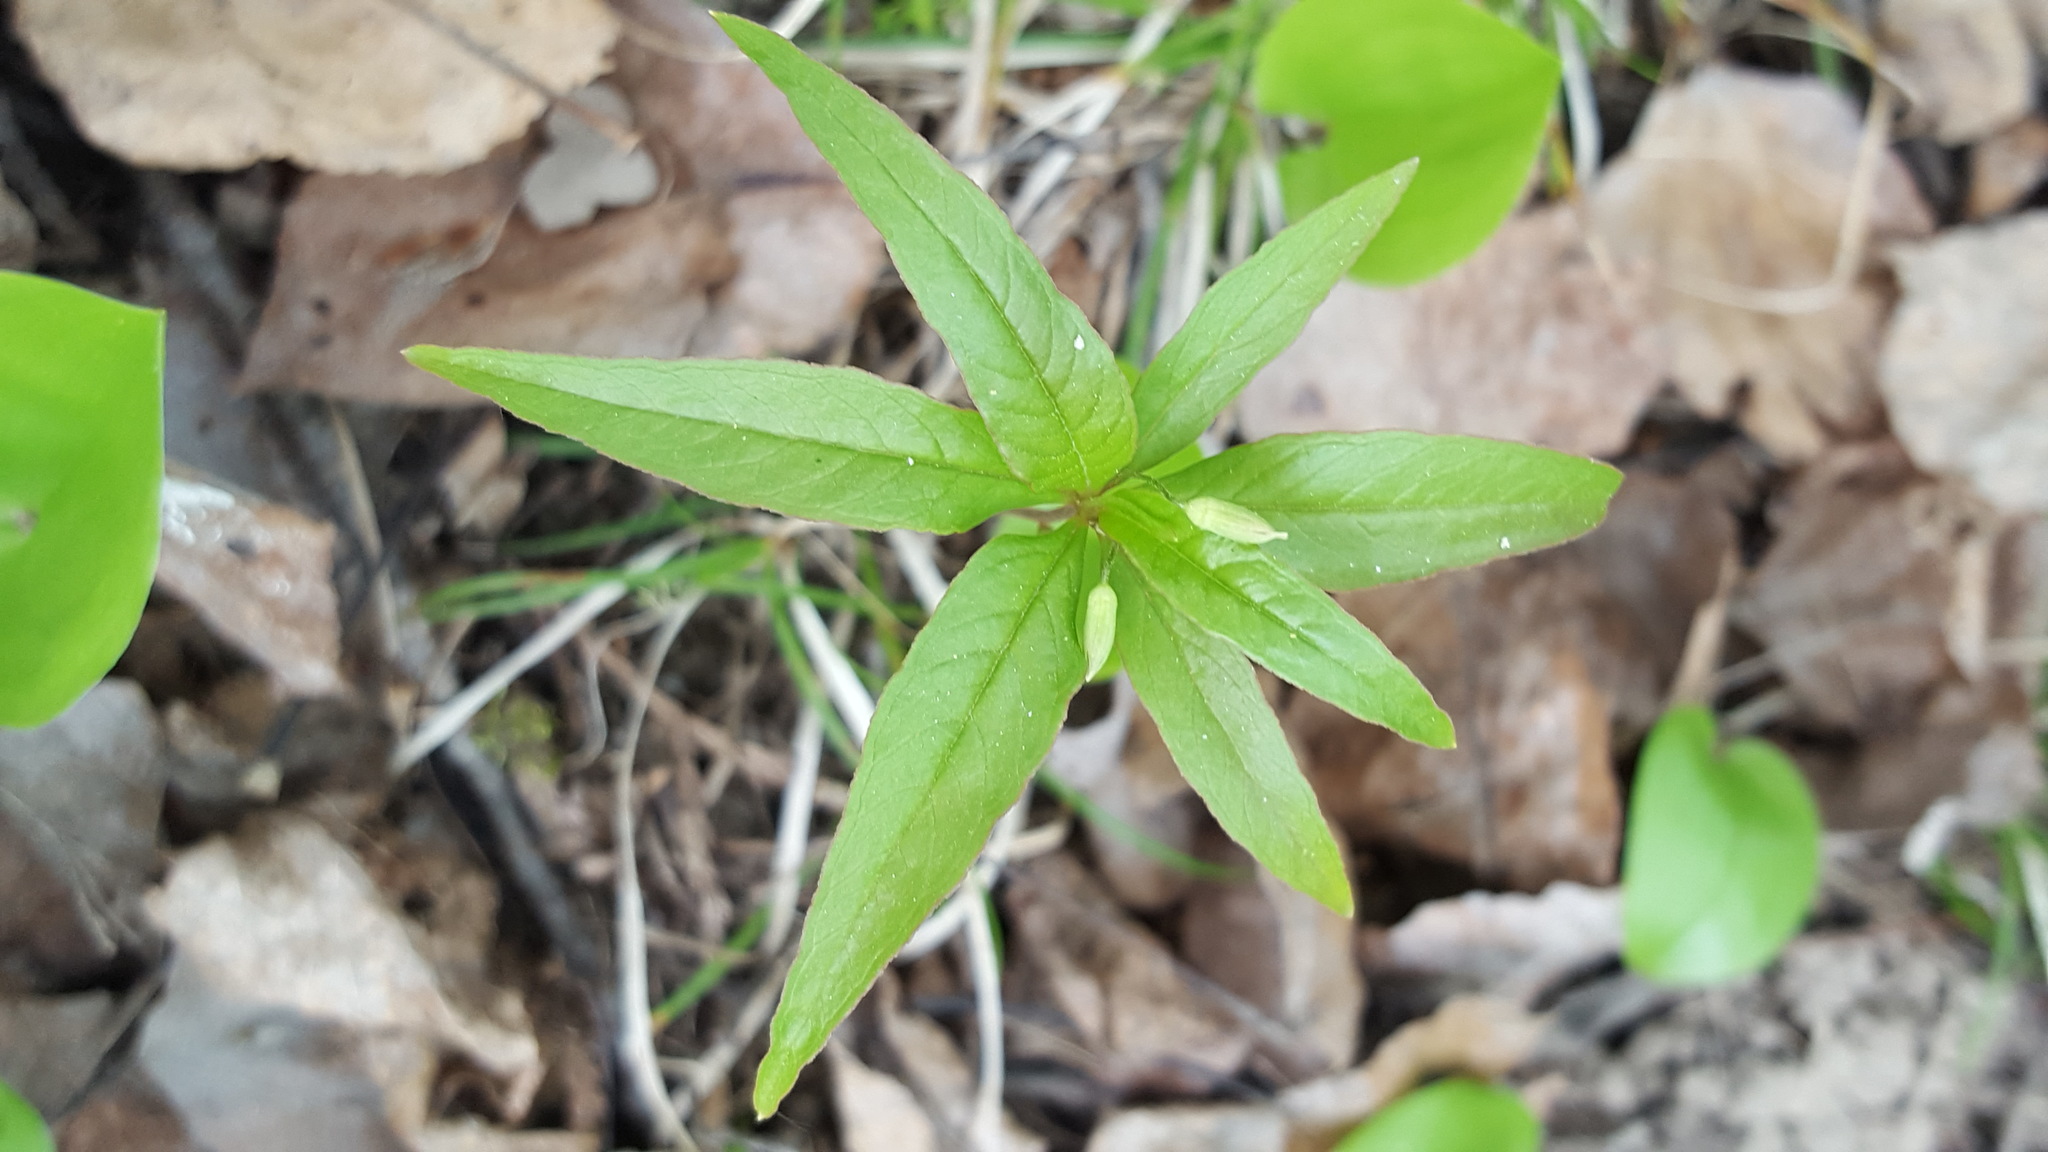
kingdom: Plantae
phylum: Tracheophyta
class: Magnoliopsida
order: Ericales
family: Primulaceae
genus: Lysimachia
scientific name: Lysimachia borealis
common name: American starflower
